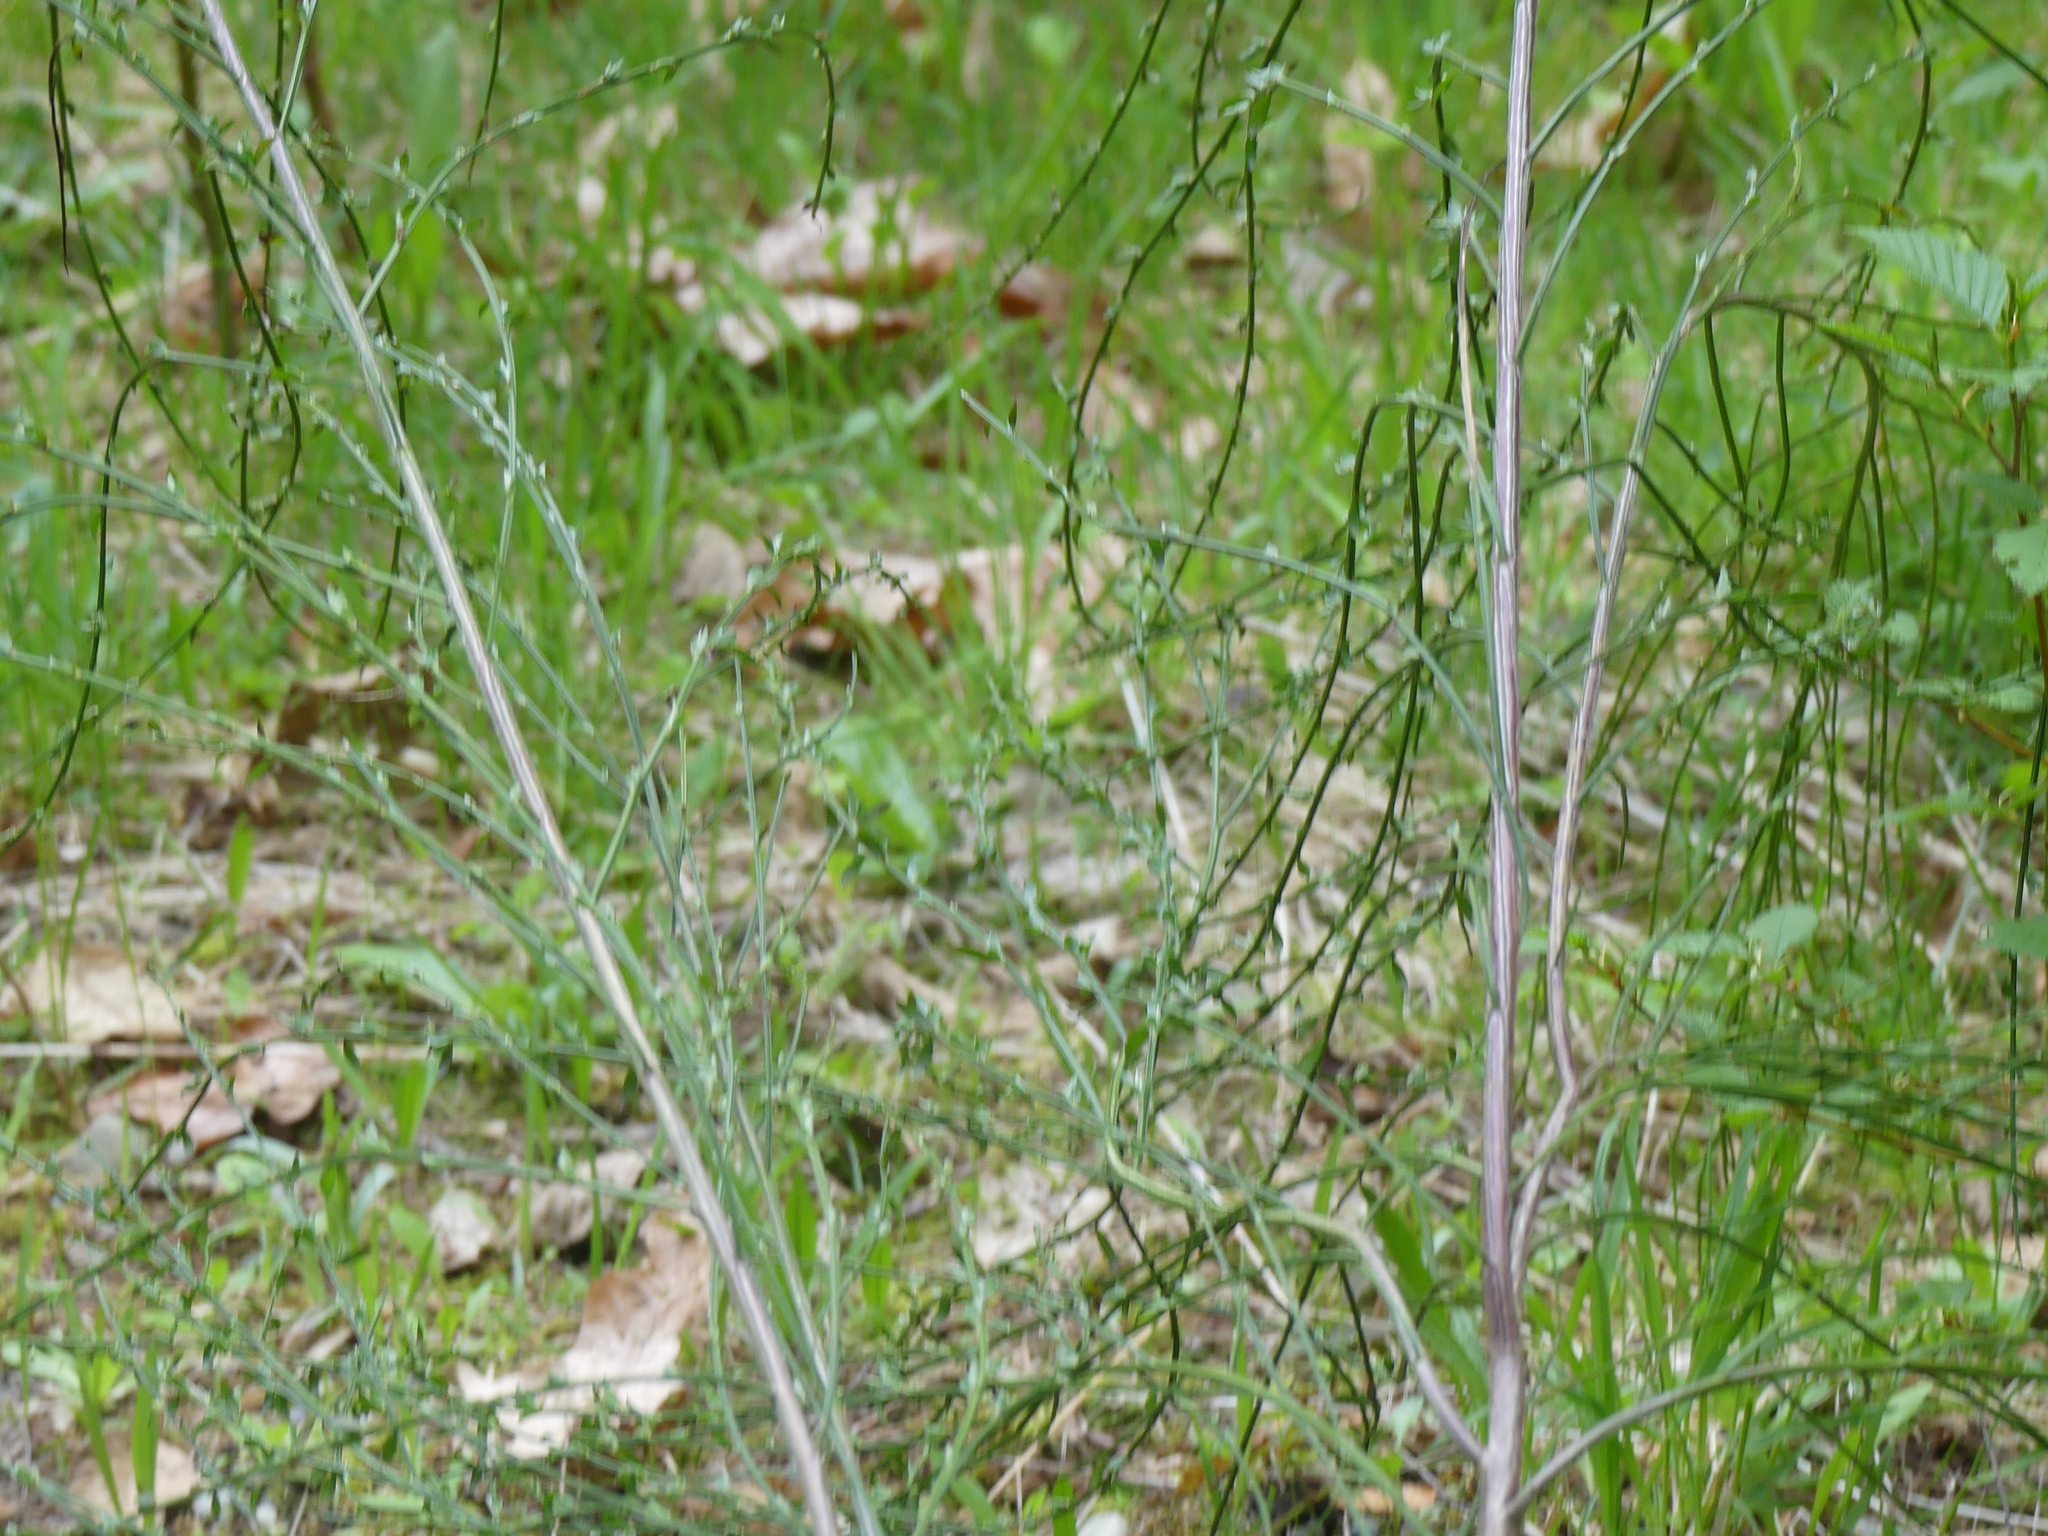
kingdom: Plantae
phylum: Tracheophyta
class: Magnoliopsida
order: Fabales
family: Fabaceae
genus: Cytisus
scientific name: Cytisus scoparius
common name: Scotch broom
